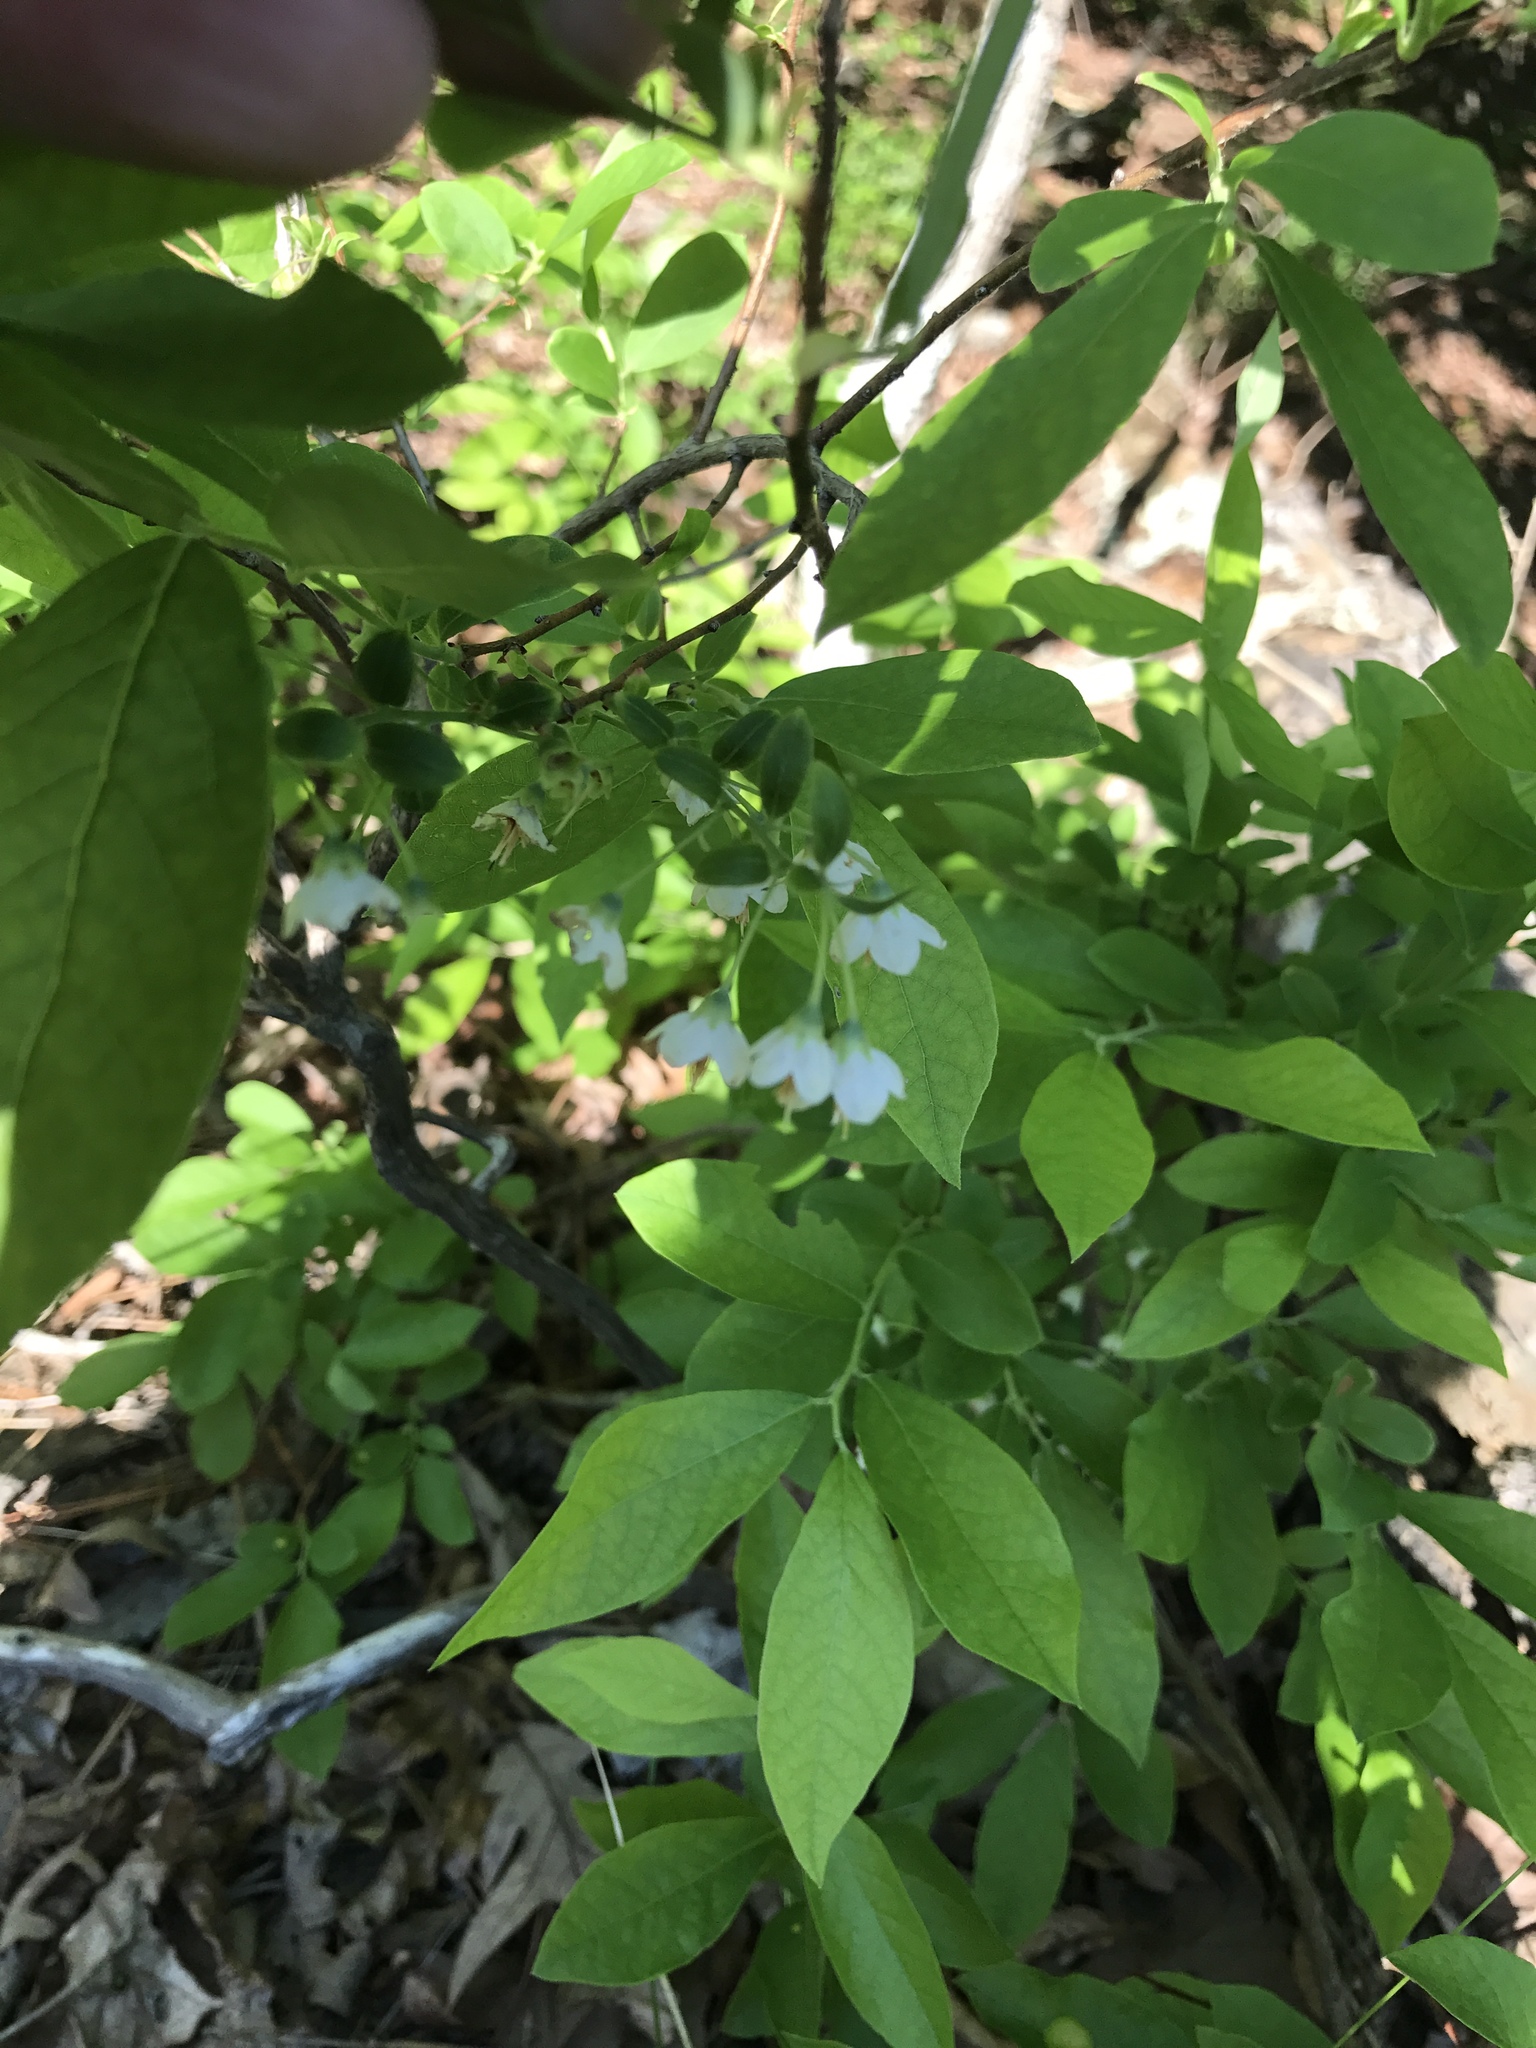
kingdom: Plantae
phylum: Tracheophyta
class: Magnoliopsida
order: Ericales
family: Ericaceae
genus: Vaccinium
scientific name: Vaccinium stamineum
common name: Deerberry
